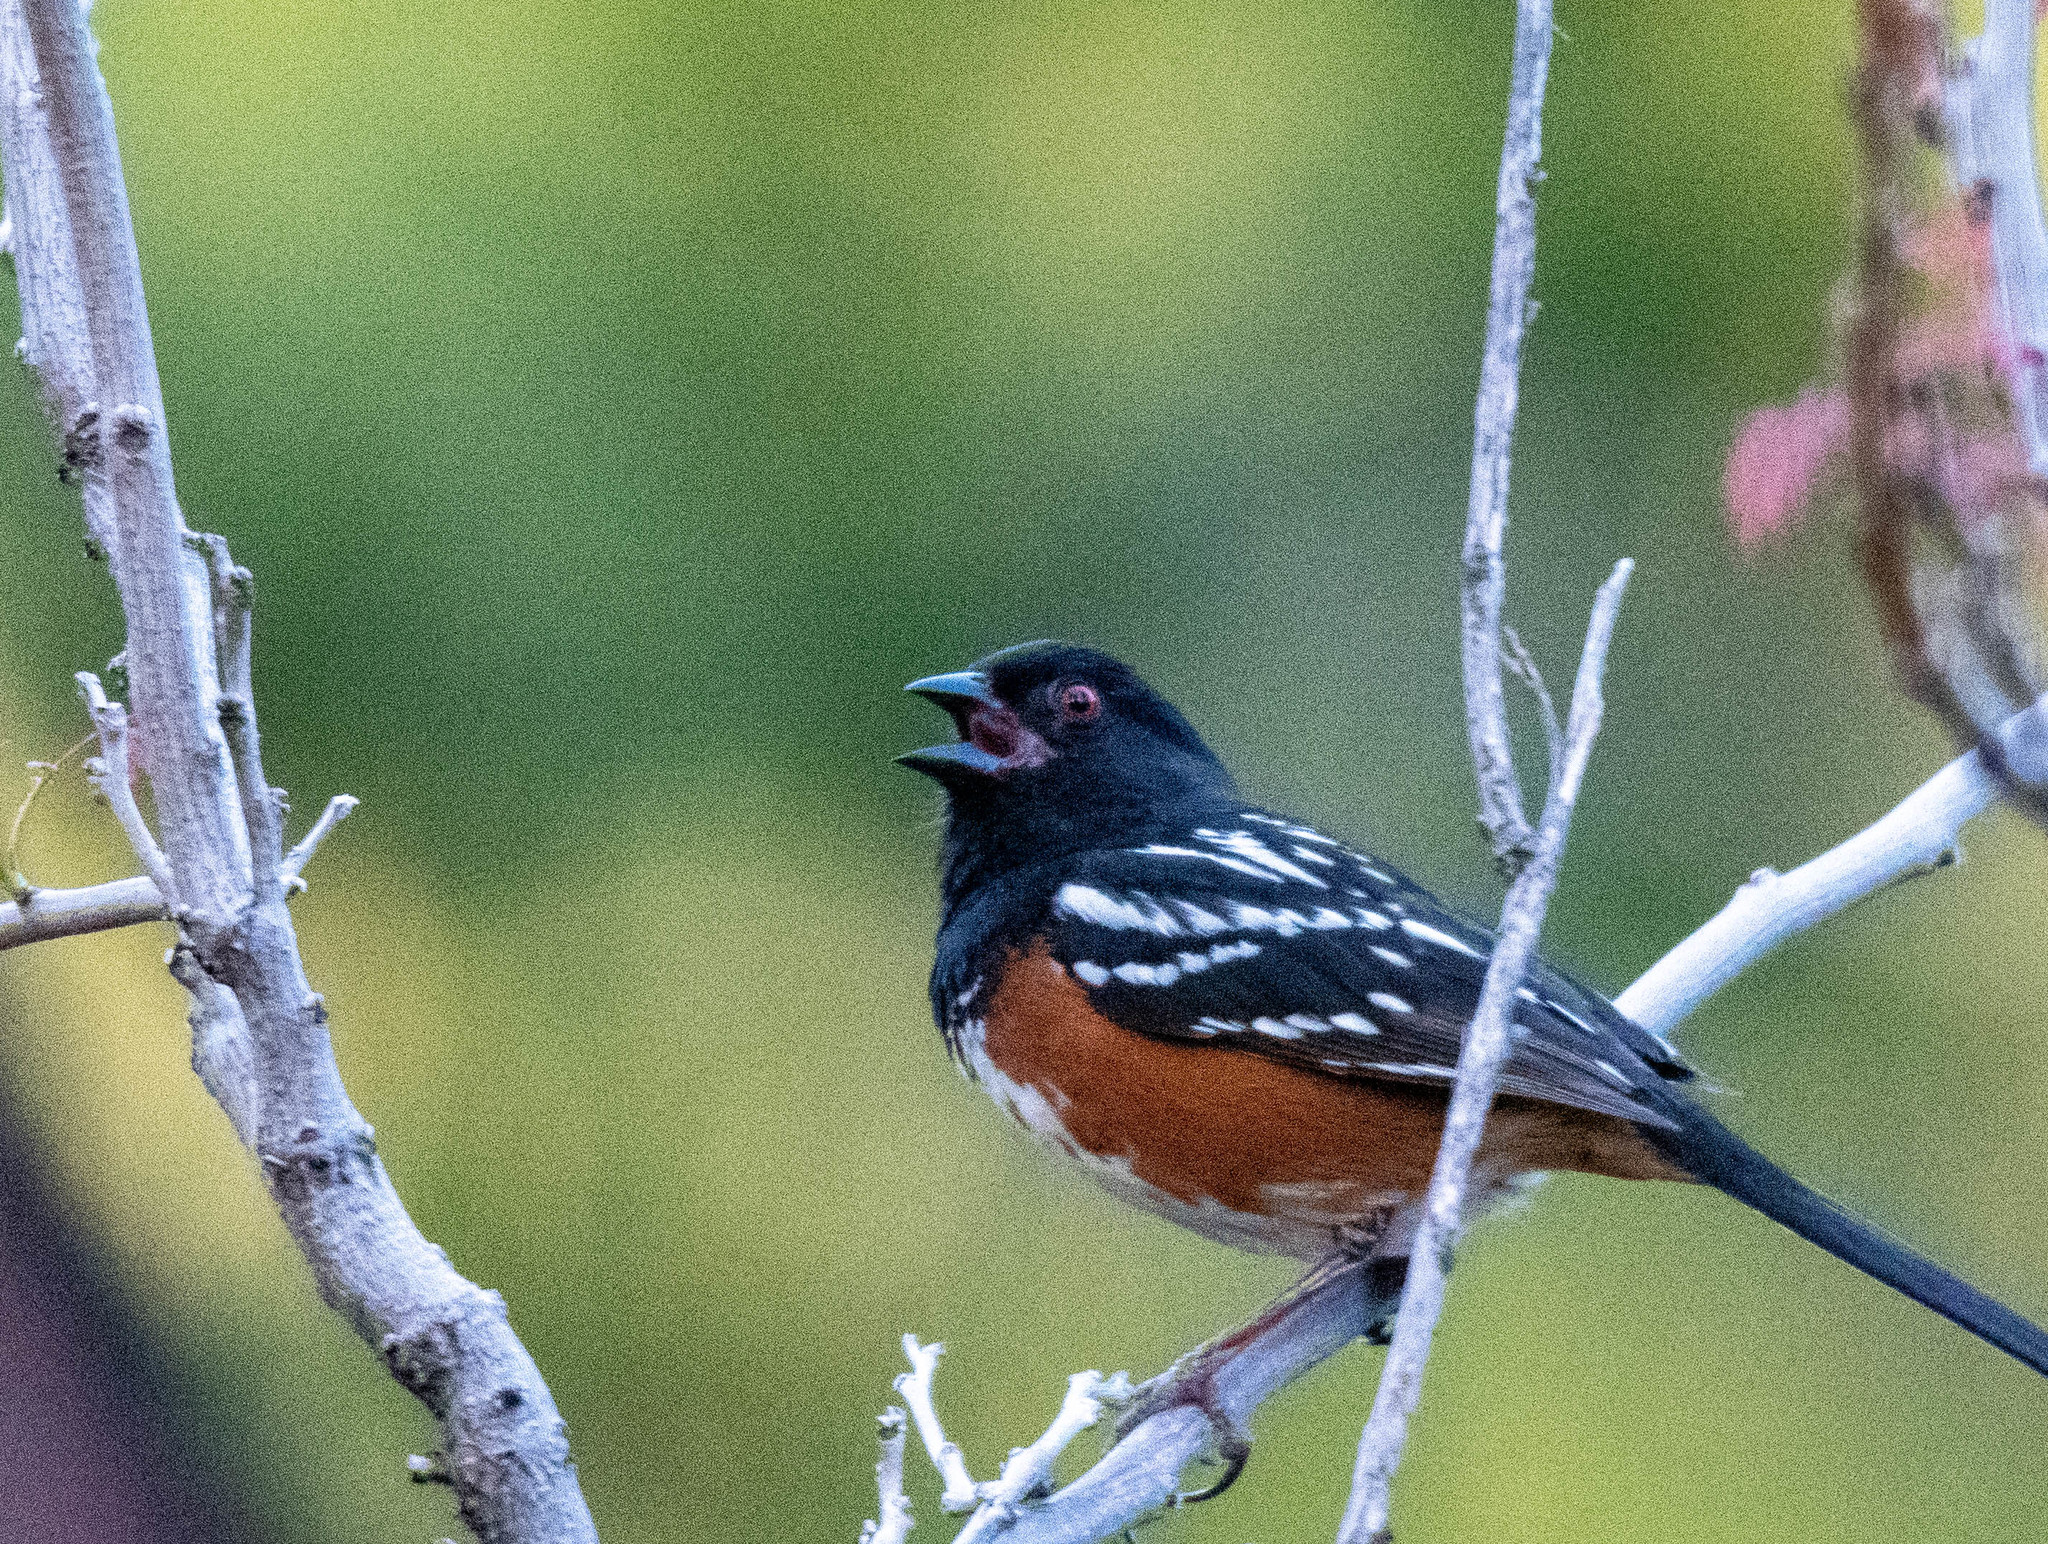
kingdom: Animalia
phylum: Chordata
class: Aves
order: Passeriformes
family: Passerellidae
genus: Pipilo
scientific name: Pipilo maculatus
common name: Spotted towhee
